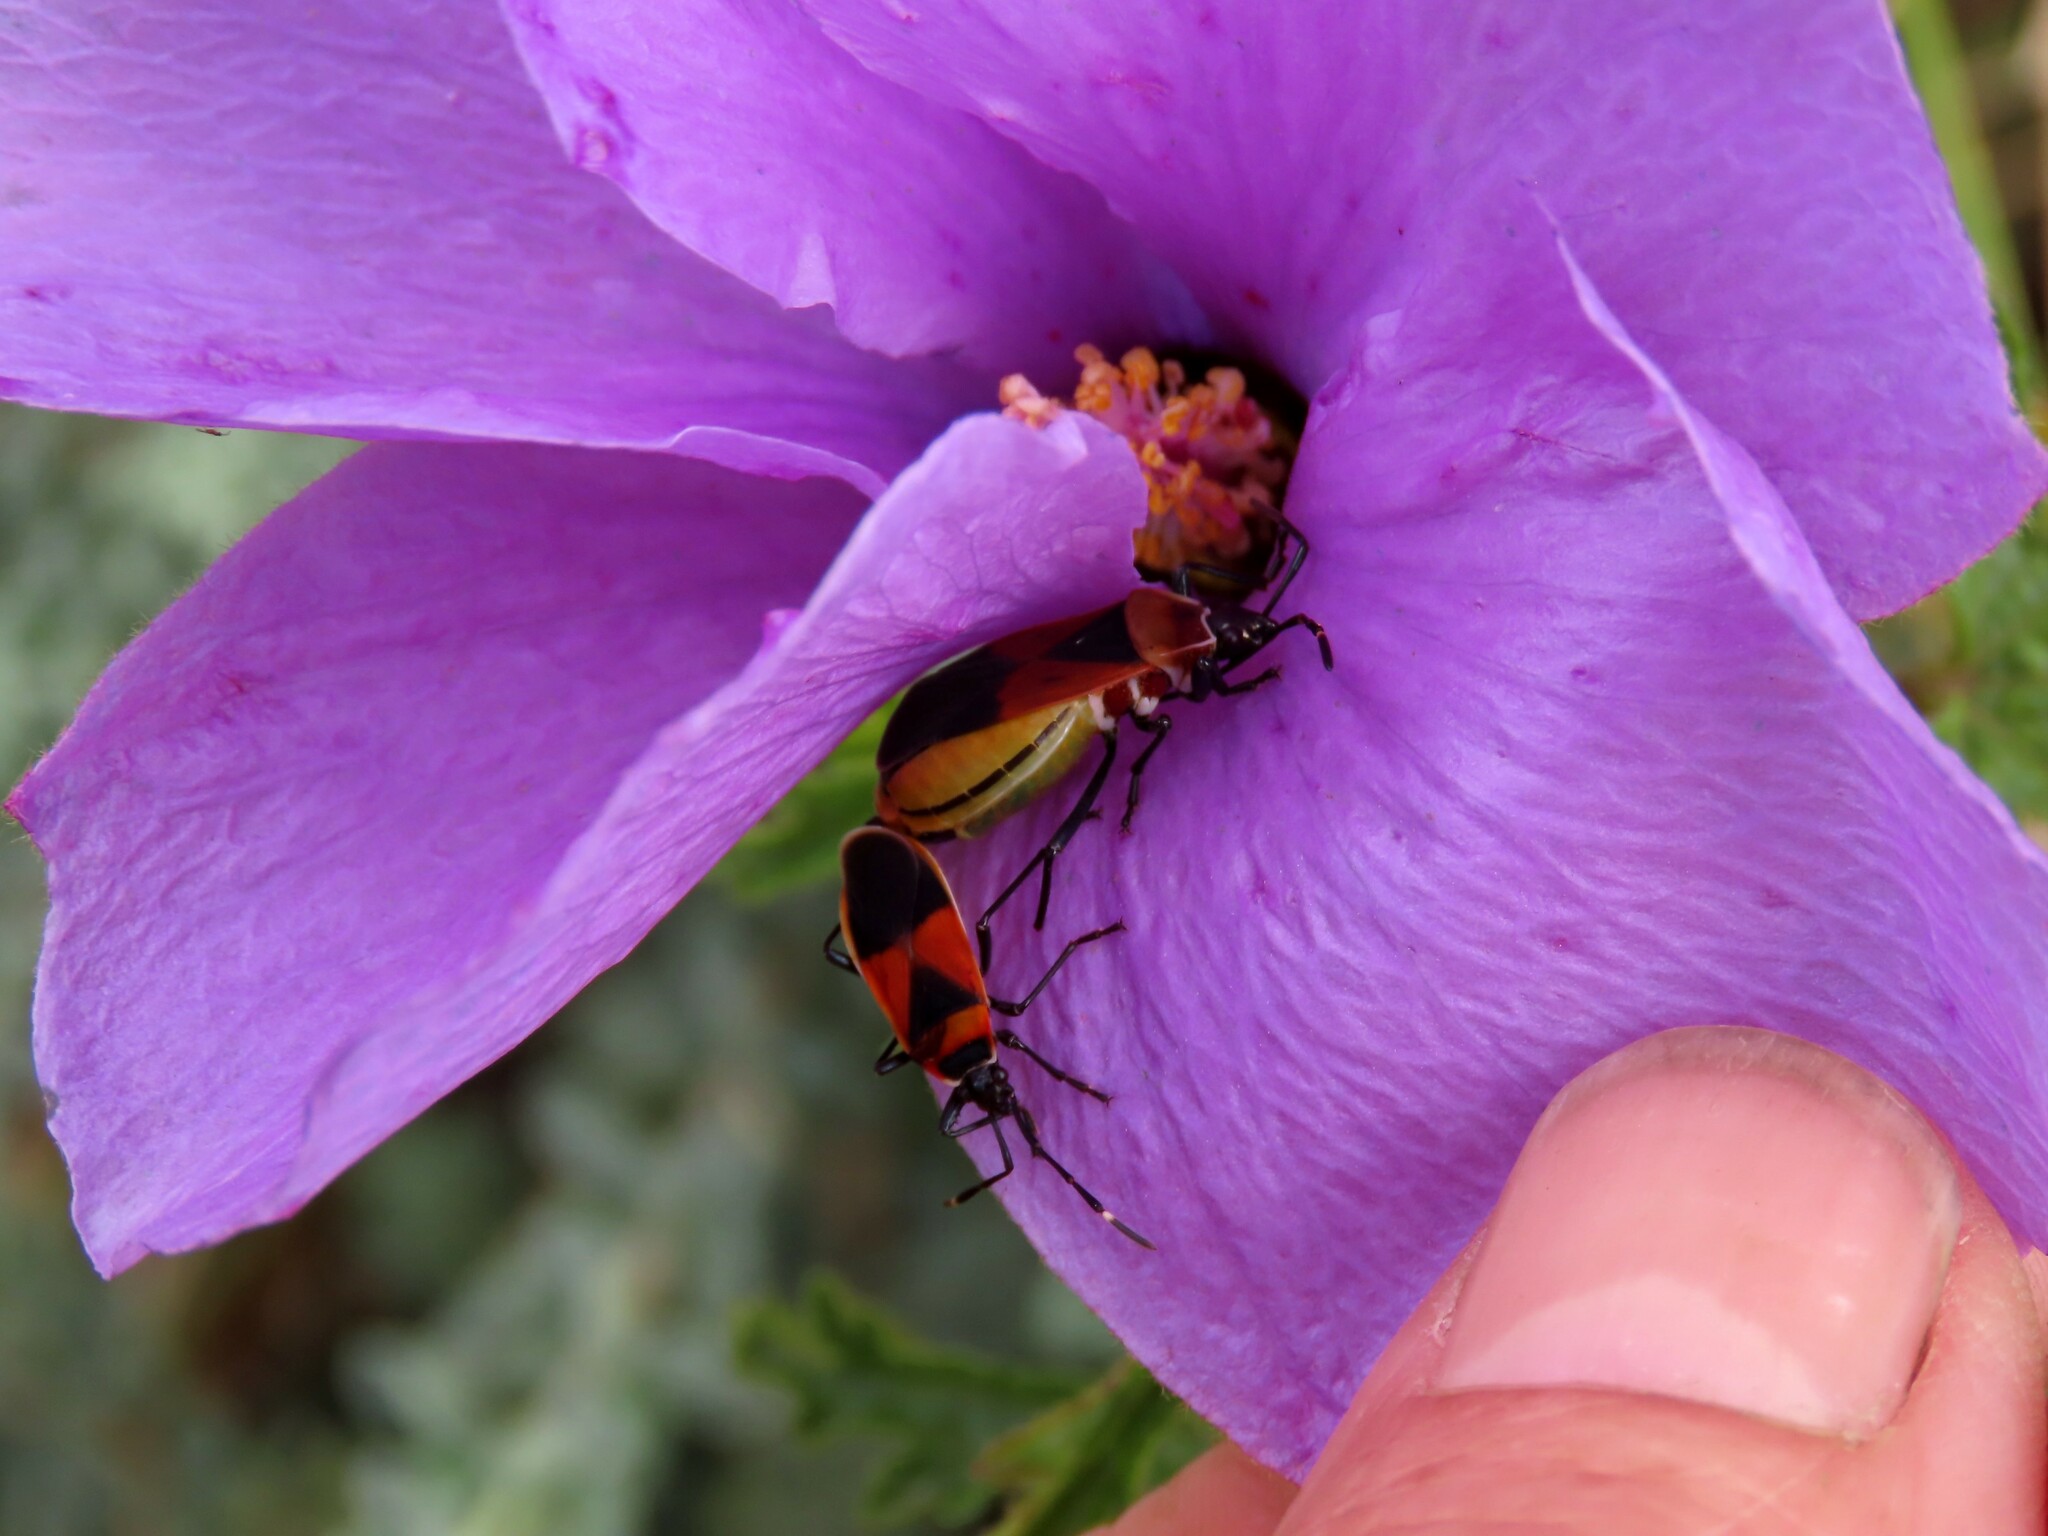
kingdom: Animalia
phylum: Arthropoda
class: Insecta
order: Hemiptera
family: Pyrrhocoridae
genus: Dindymus
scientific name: Dindymus
